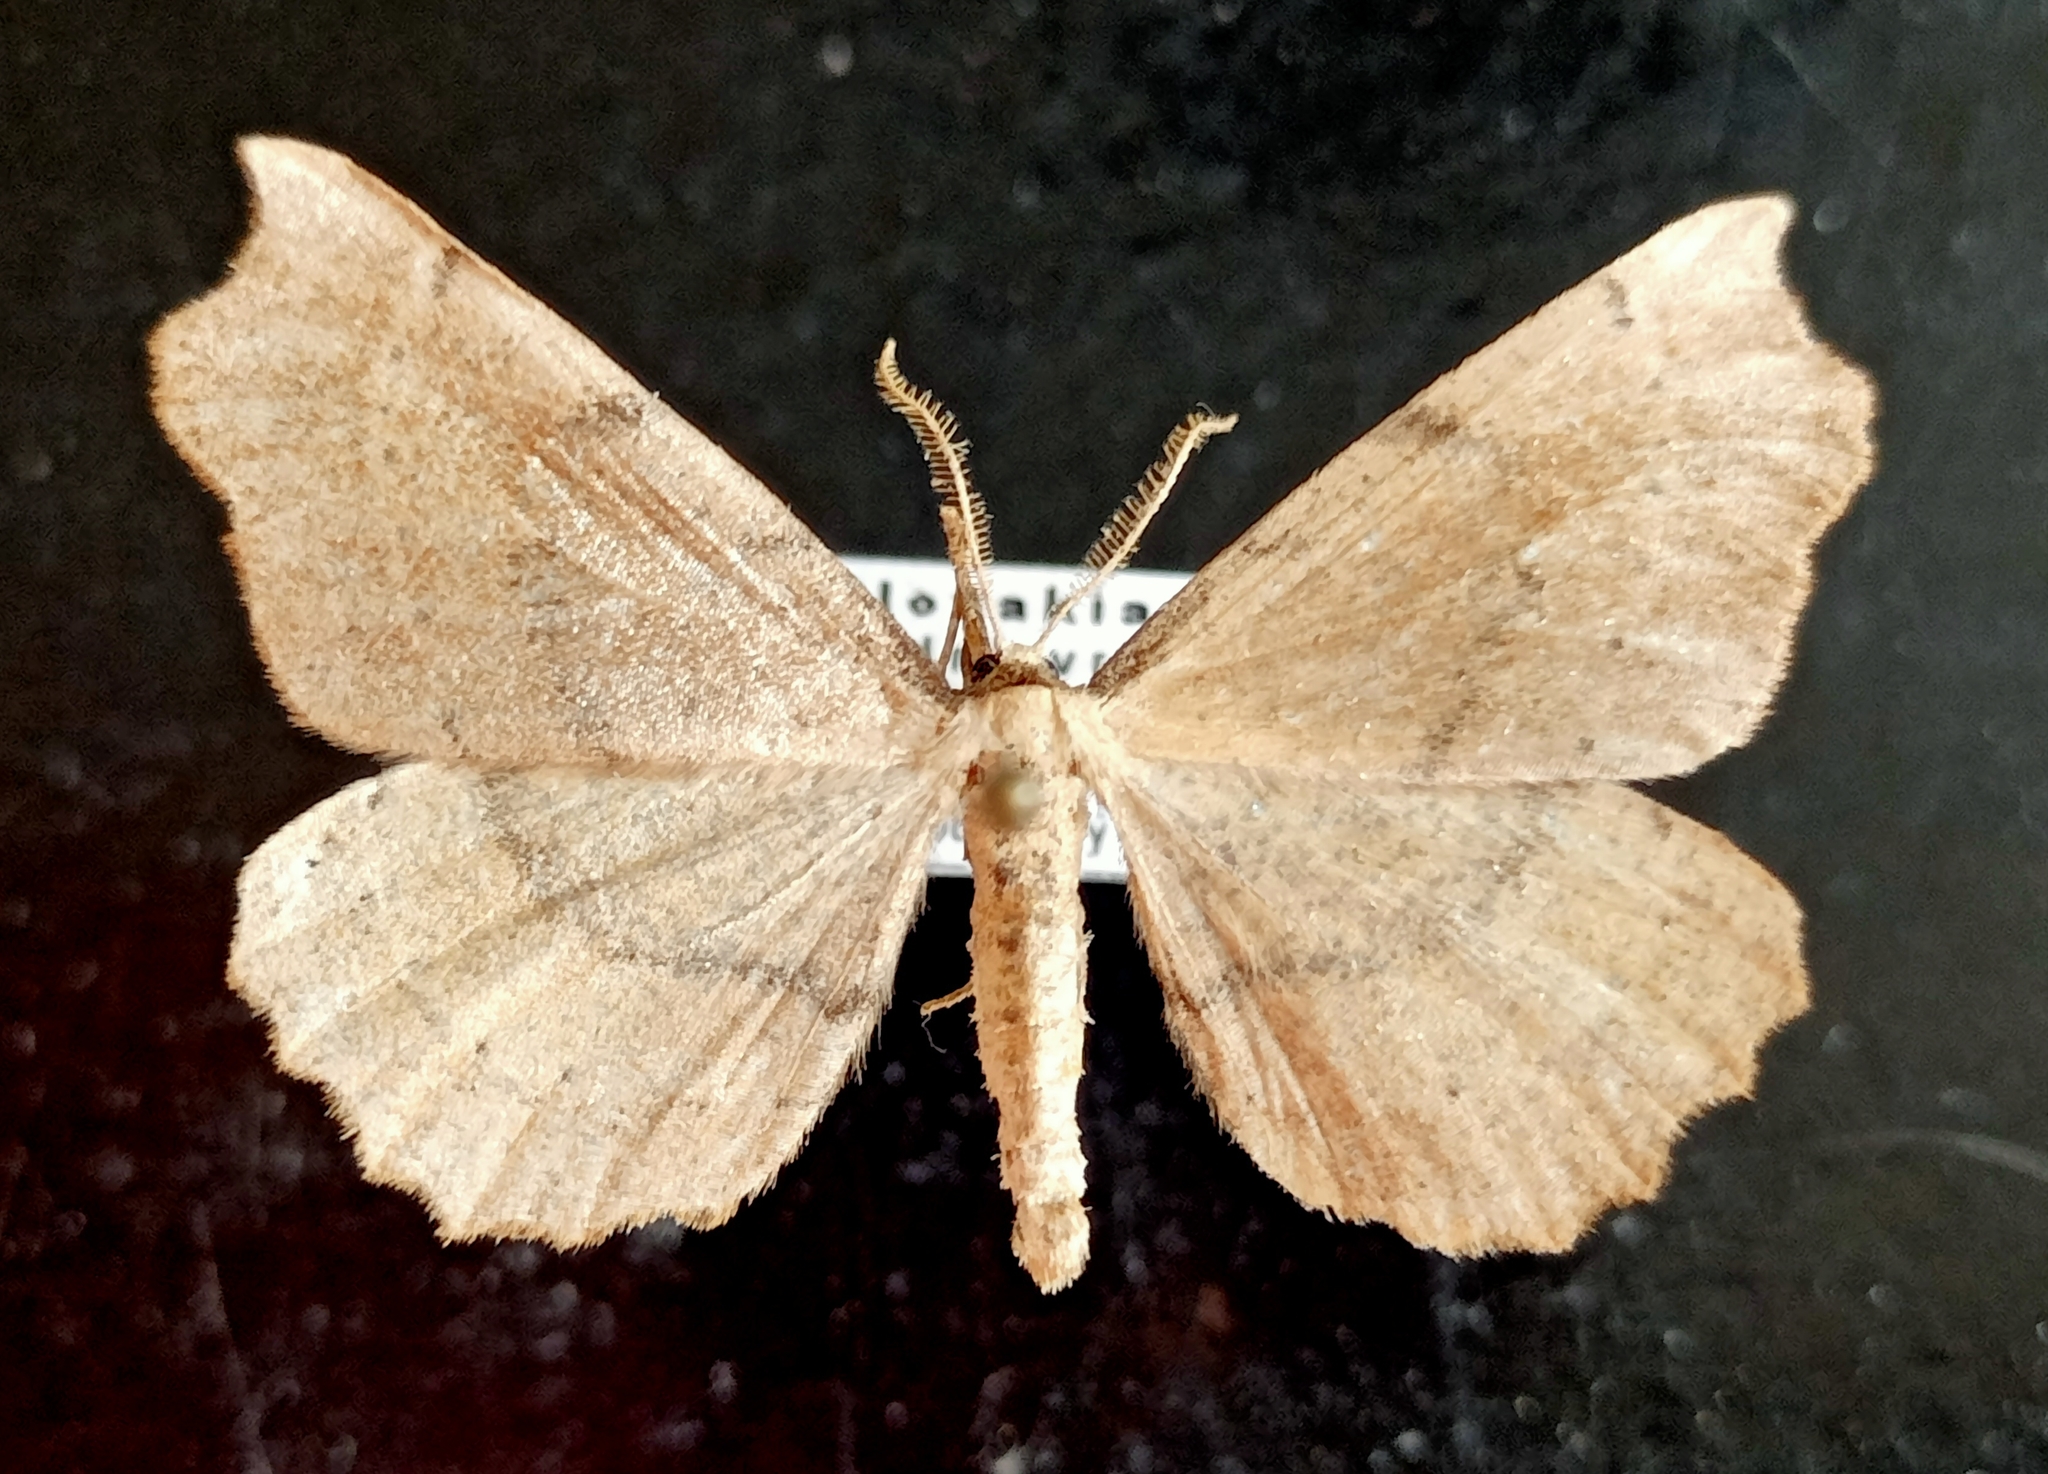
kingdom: Animalia
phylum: Arthropoda
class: Insecta
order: Lepidoptera
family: Geometridae
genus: Artiora
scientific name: Artiora evonymaria
